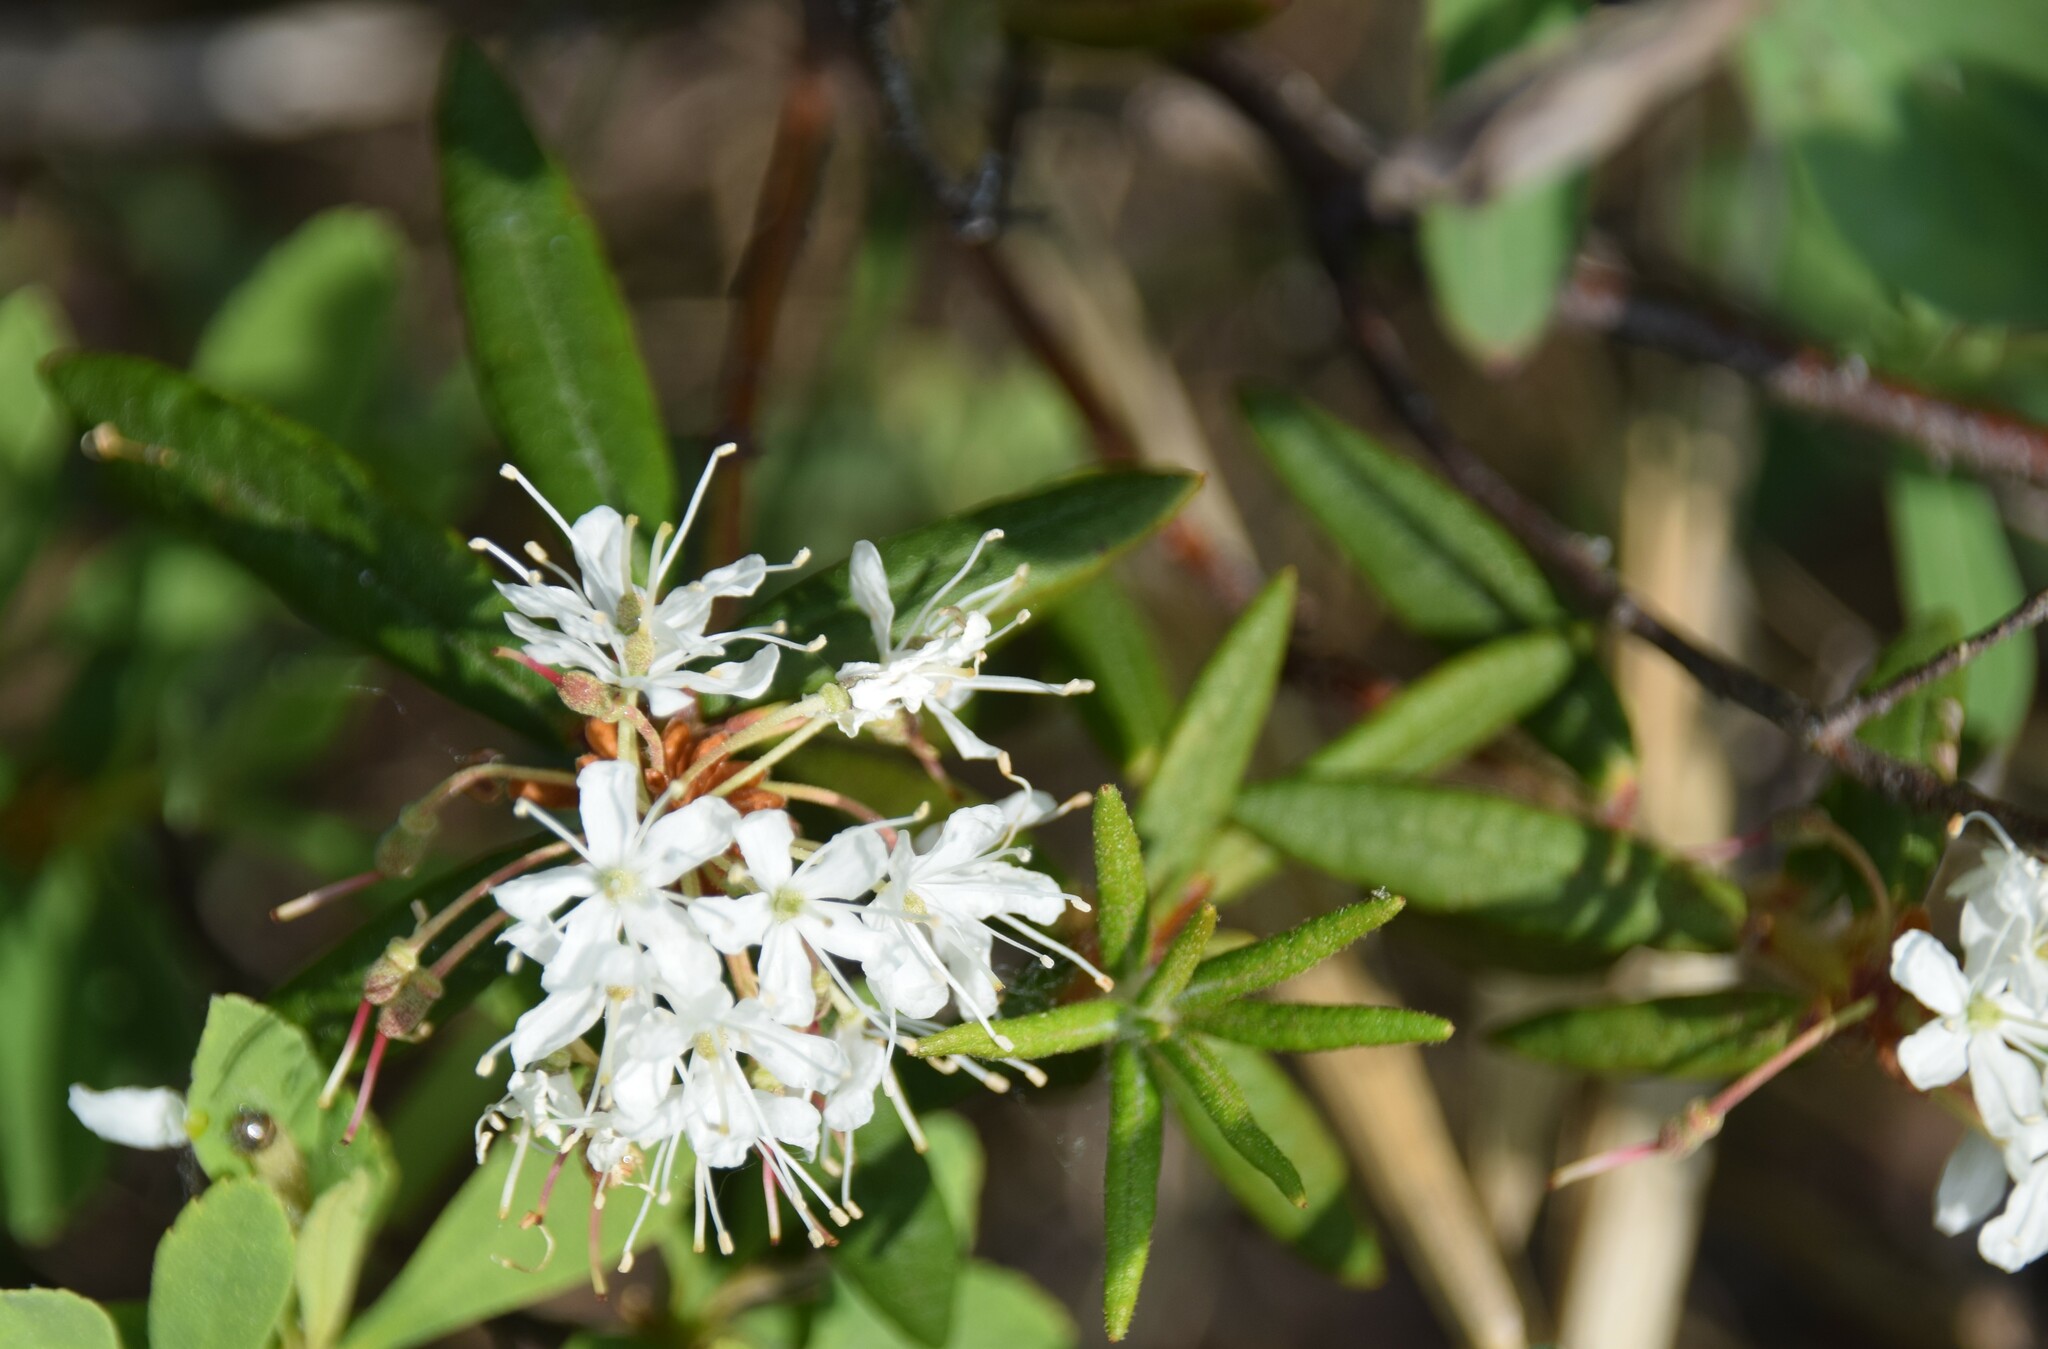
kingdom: Plantae
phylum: Tracheophyta
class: Magnoliopsida
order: Ericales
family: Ericaceae
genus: Rhododendron
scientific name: Rhododendron groenlandicum
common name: Bog labrador tea
